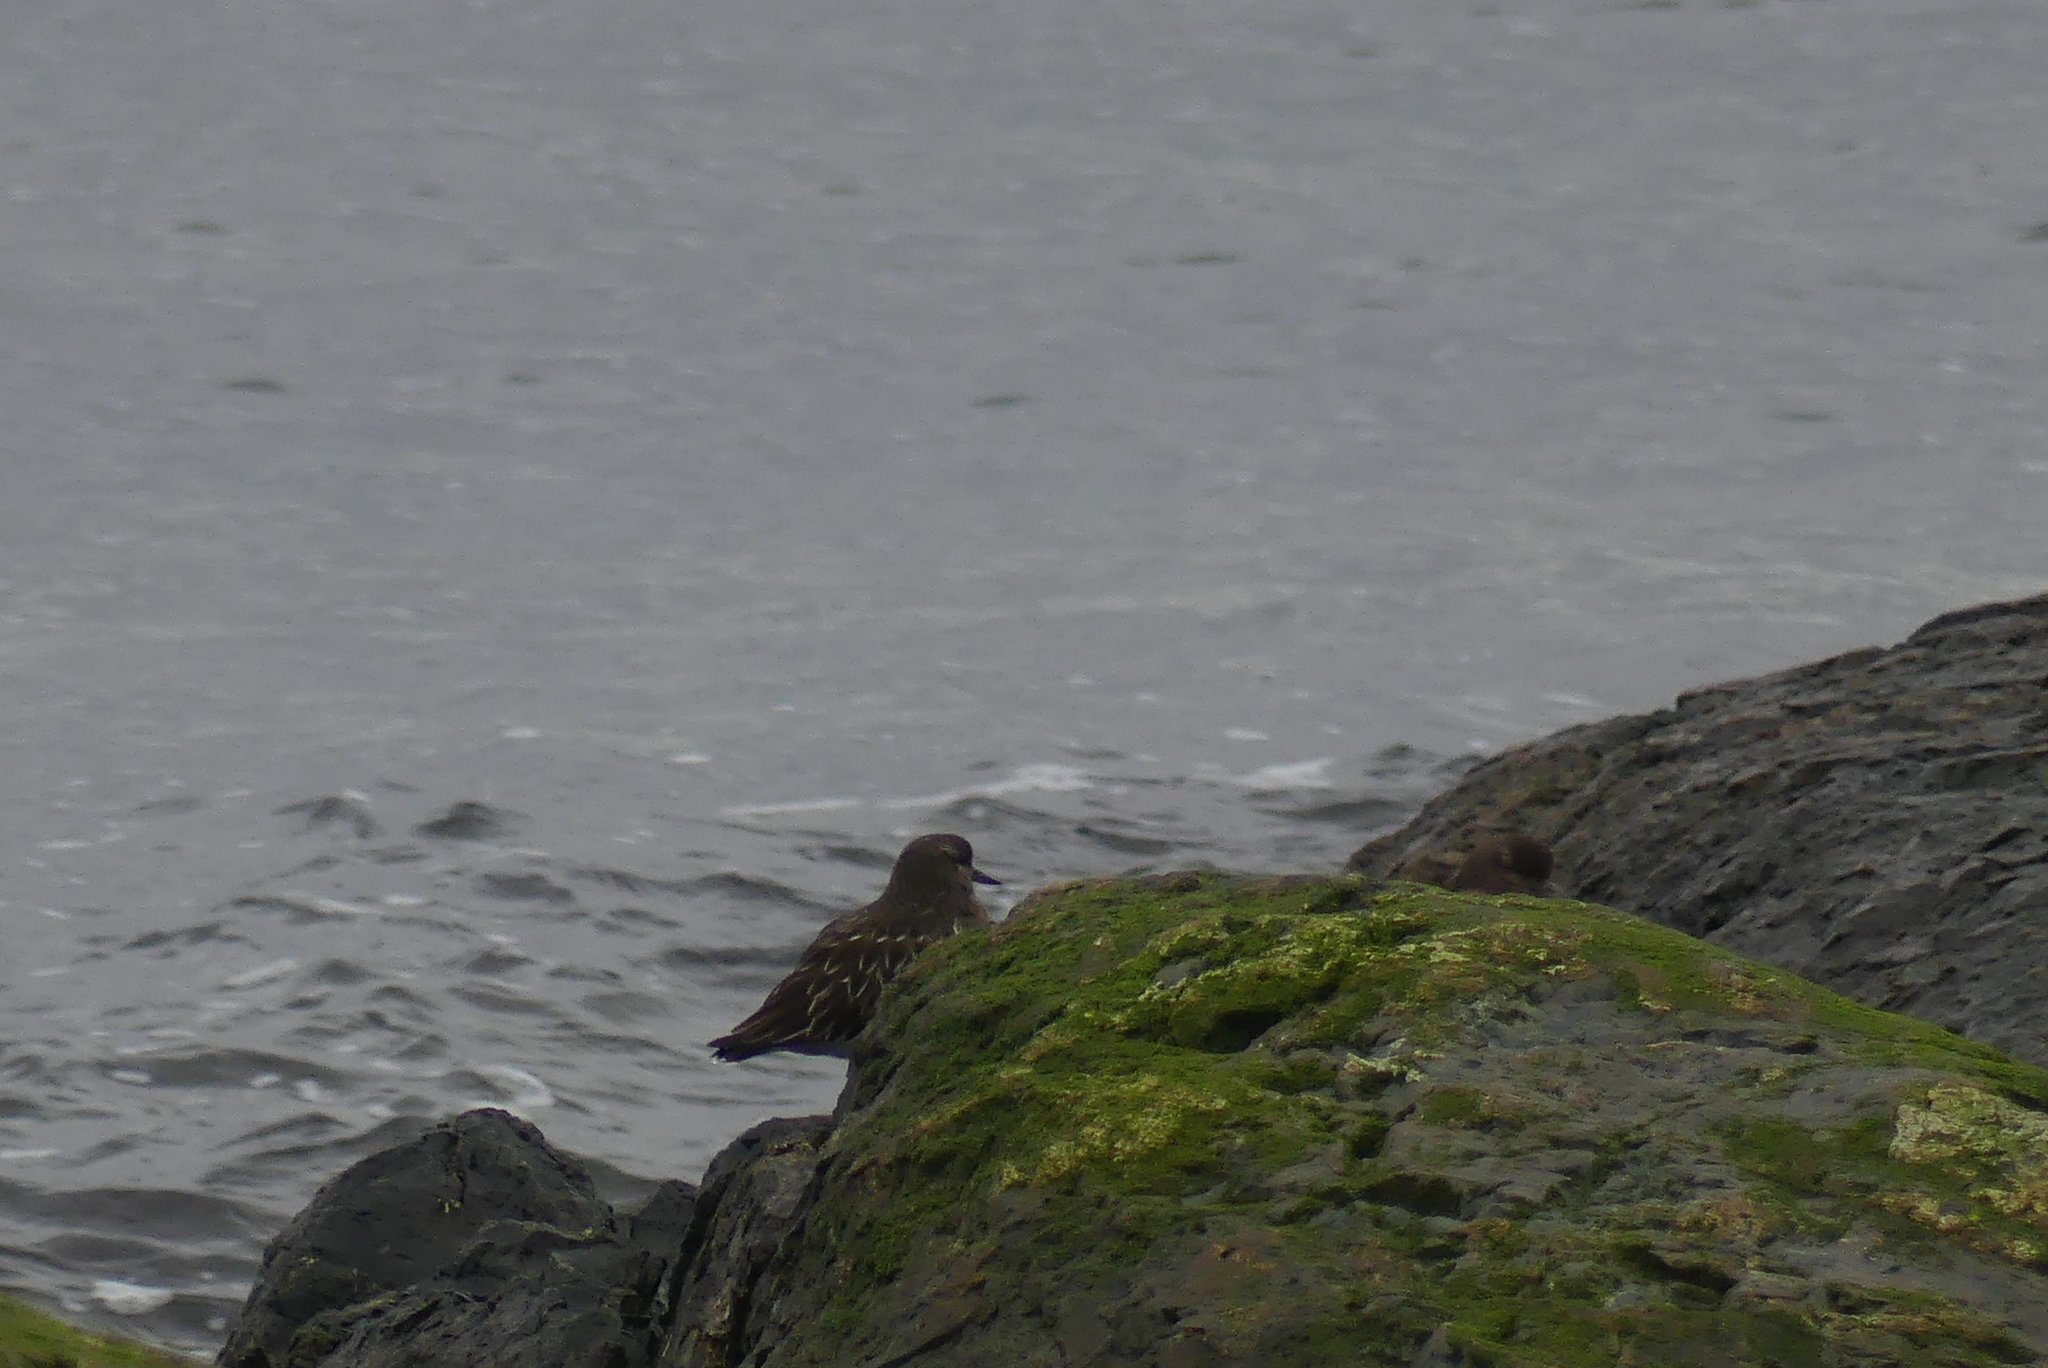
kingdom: Animalia
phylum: Chordata
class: Aves
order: Charadriiformes
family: Scolopacidae
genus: Arenaria
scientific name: Arenaria melanocephala
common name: Black turnstone
